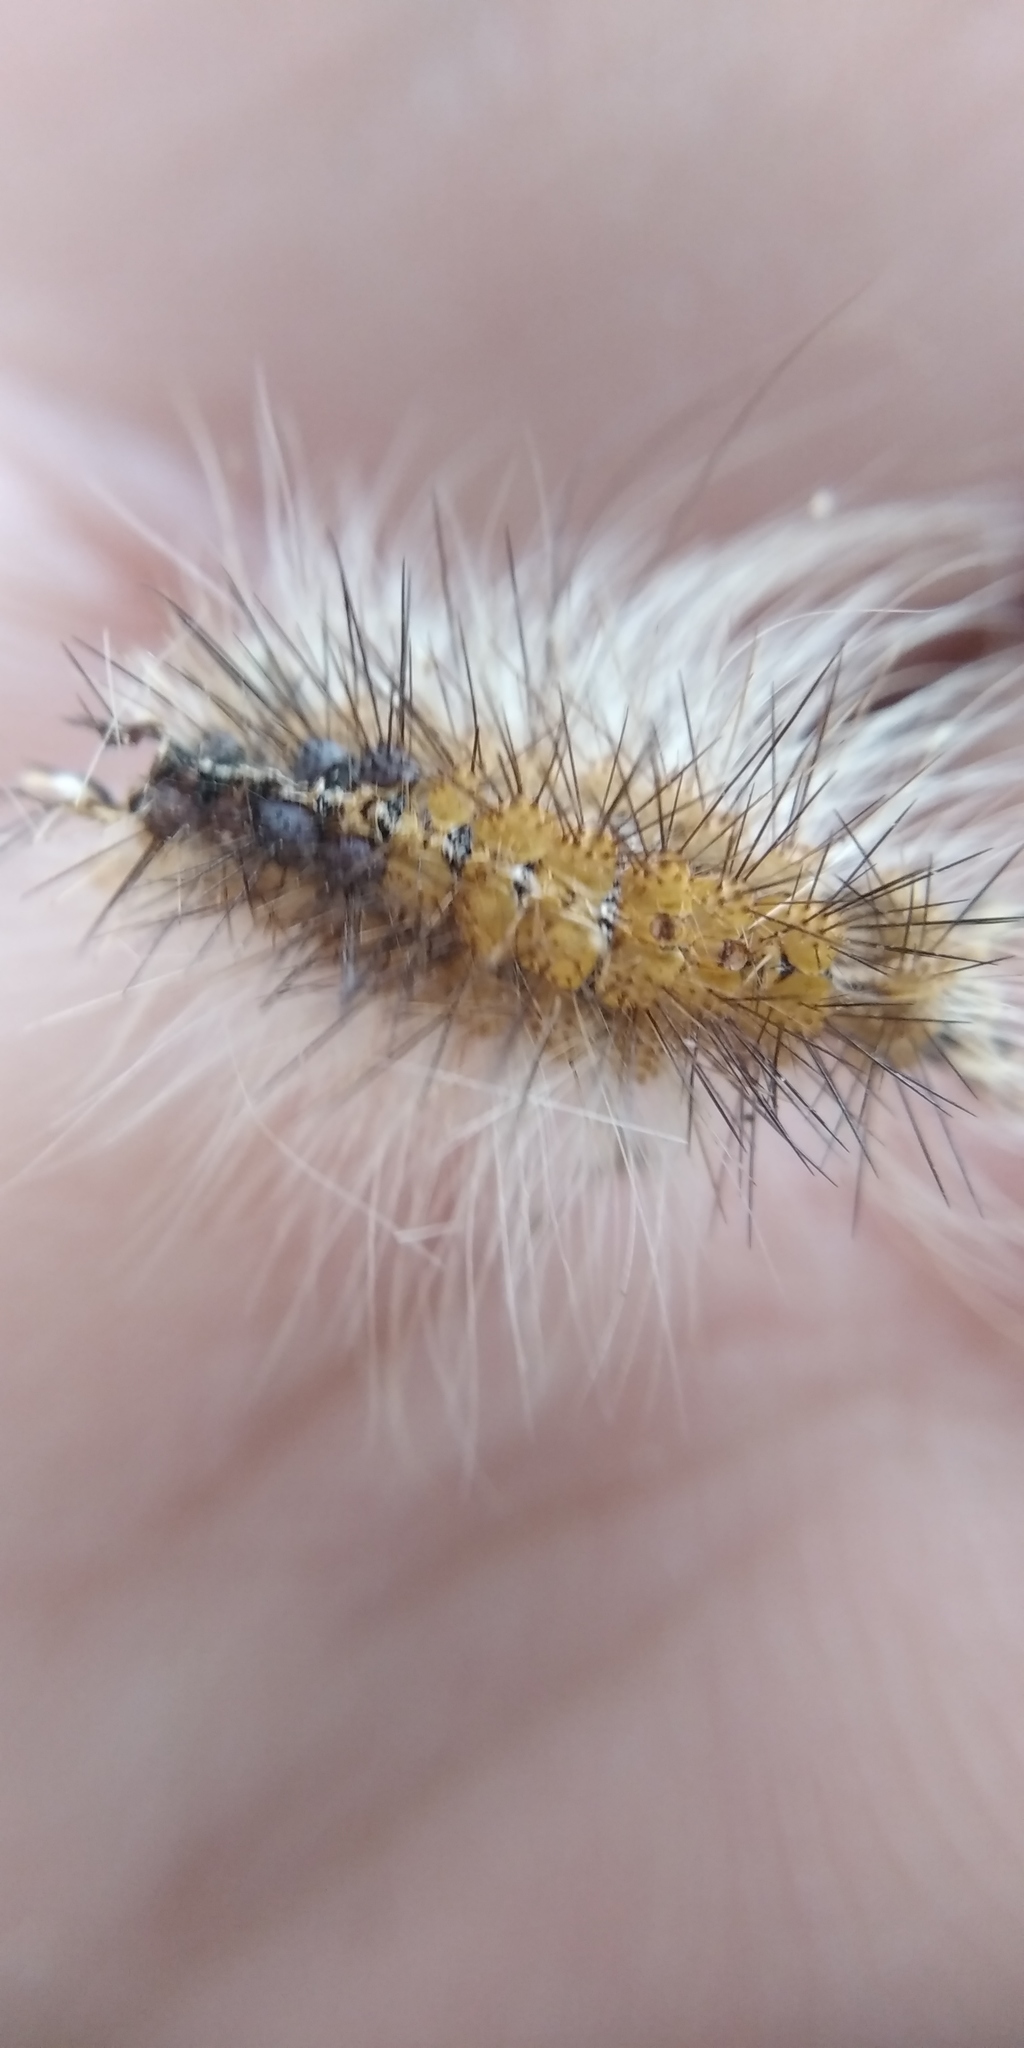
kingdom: Animalia
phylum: Arthropoda
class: Insecta
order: Lepidoptera
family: Erebidae
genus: Lymantria
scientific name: Lymantria dispar
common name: Gypsy moth
